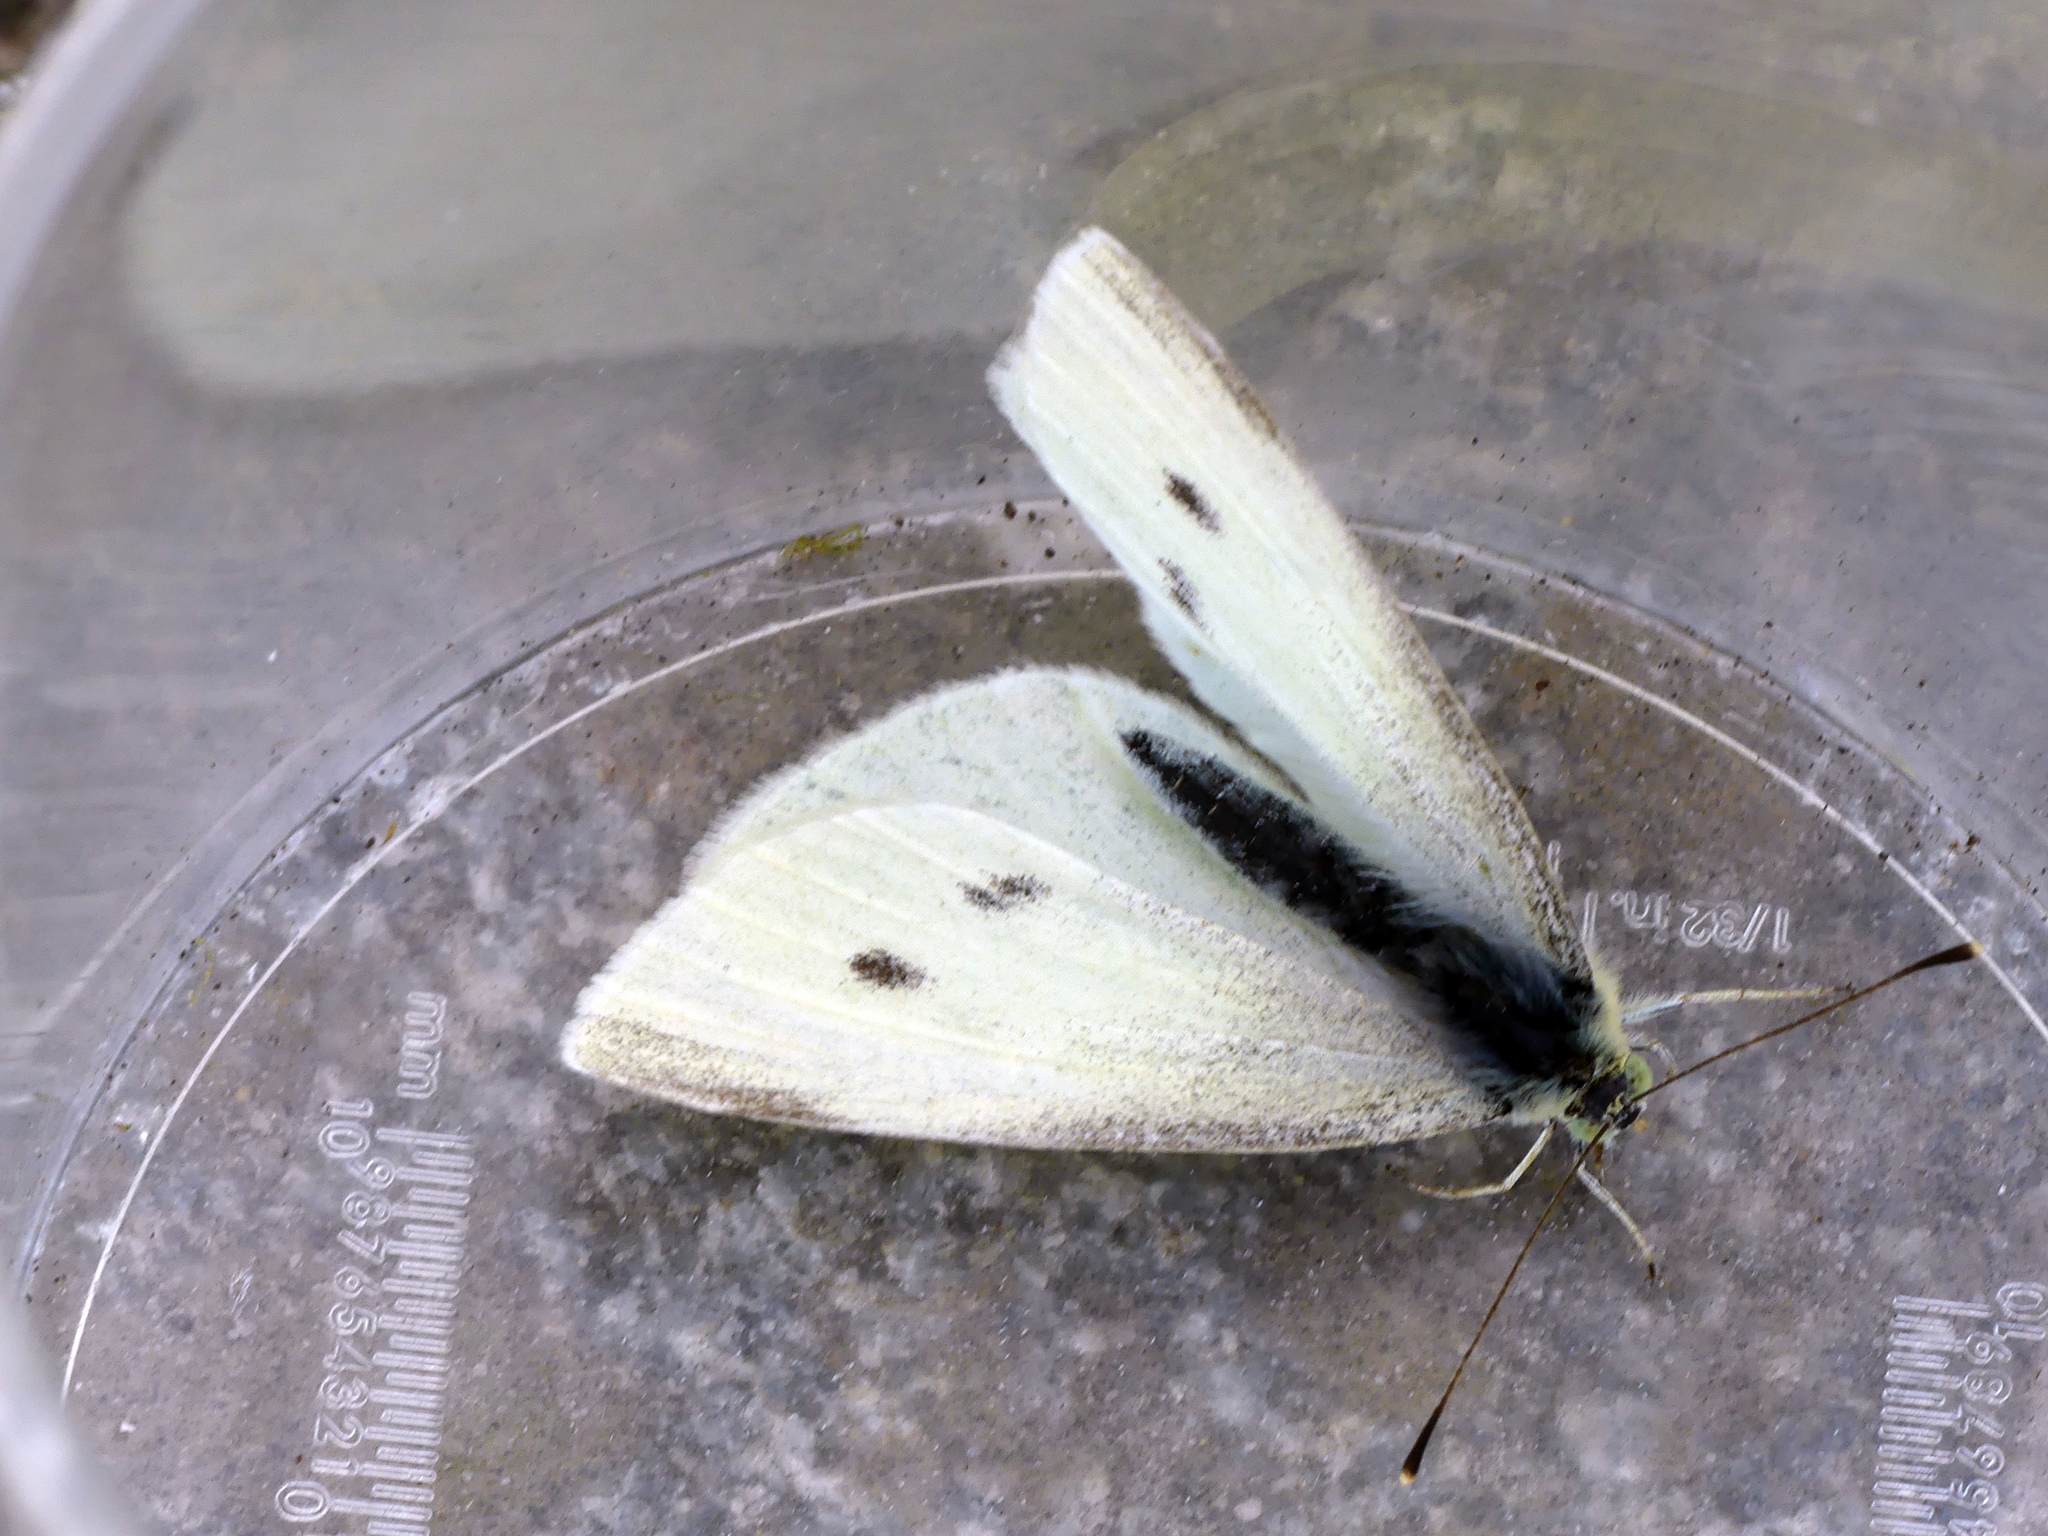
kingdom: Animalia
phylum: Arthropoda
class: Insecta
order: Lepidoptera
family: Pieridae
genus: Pieris
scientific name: Pieris rapae
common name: Small white
